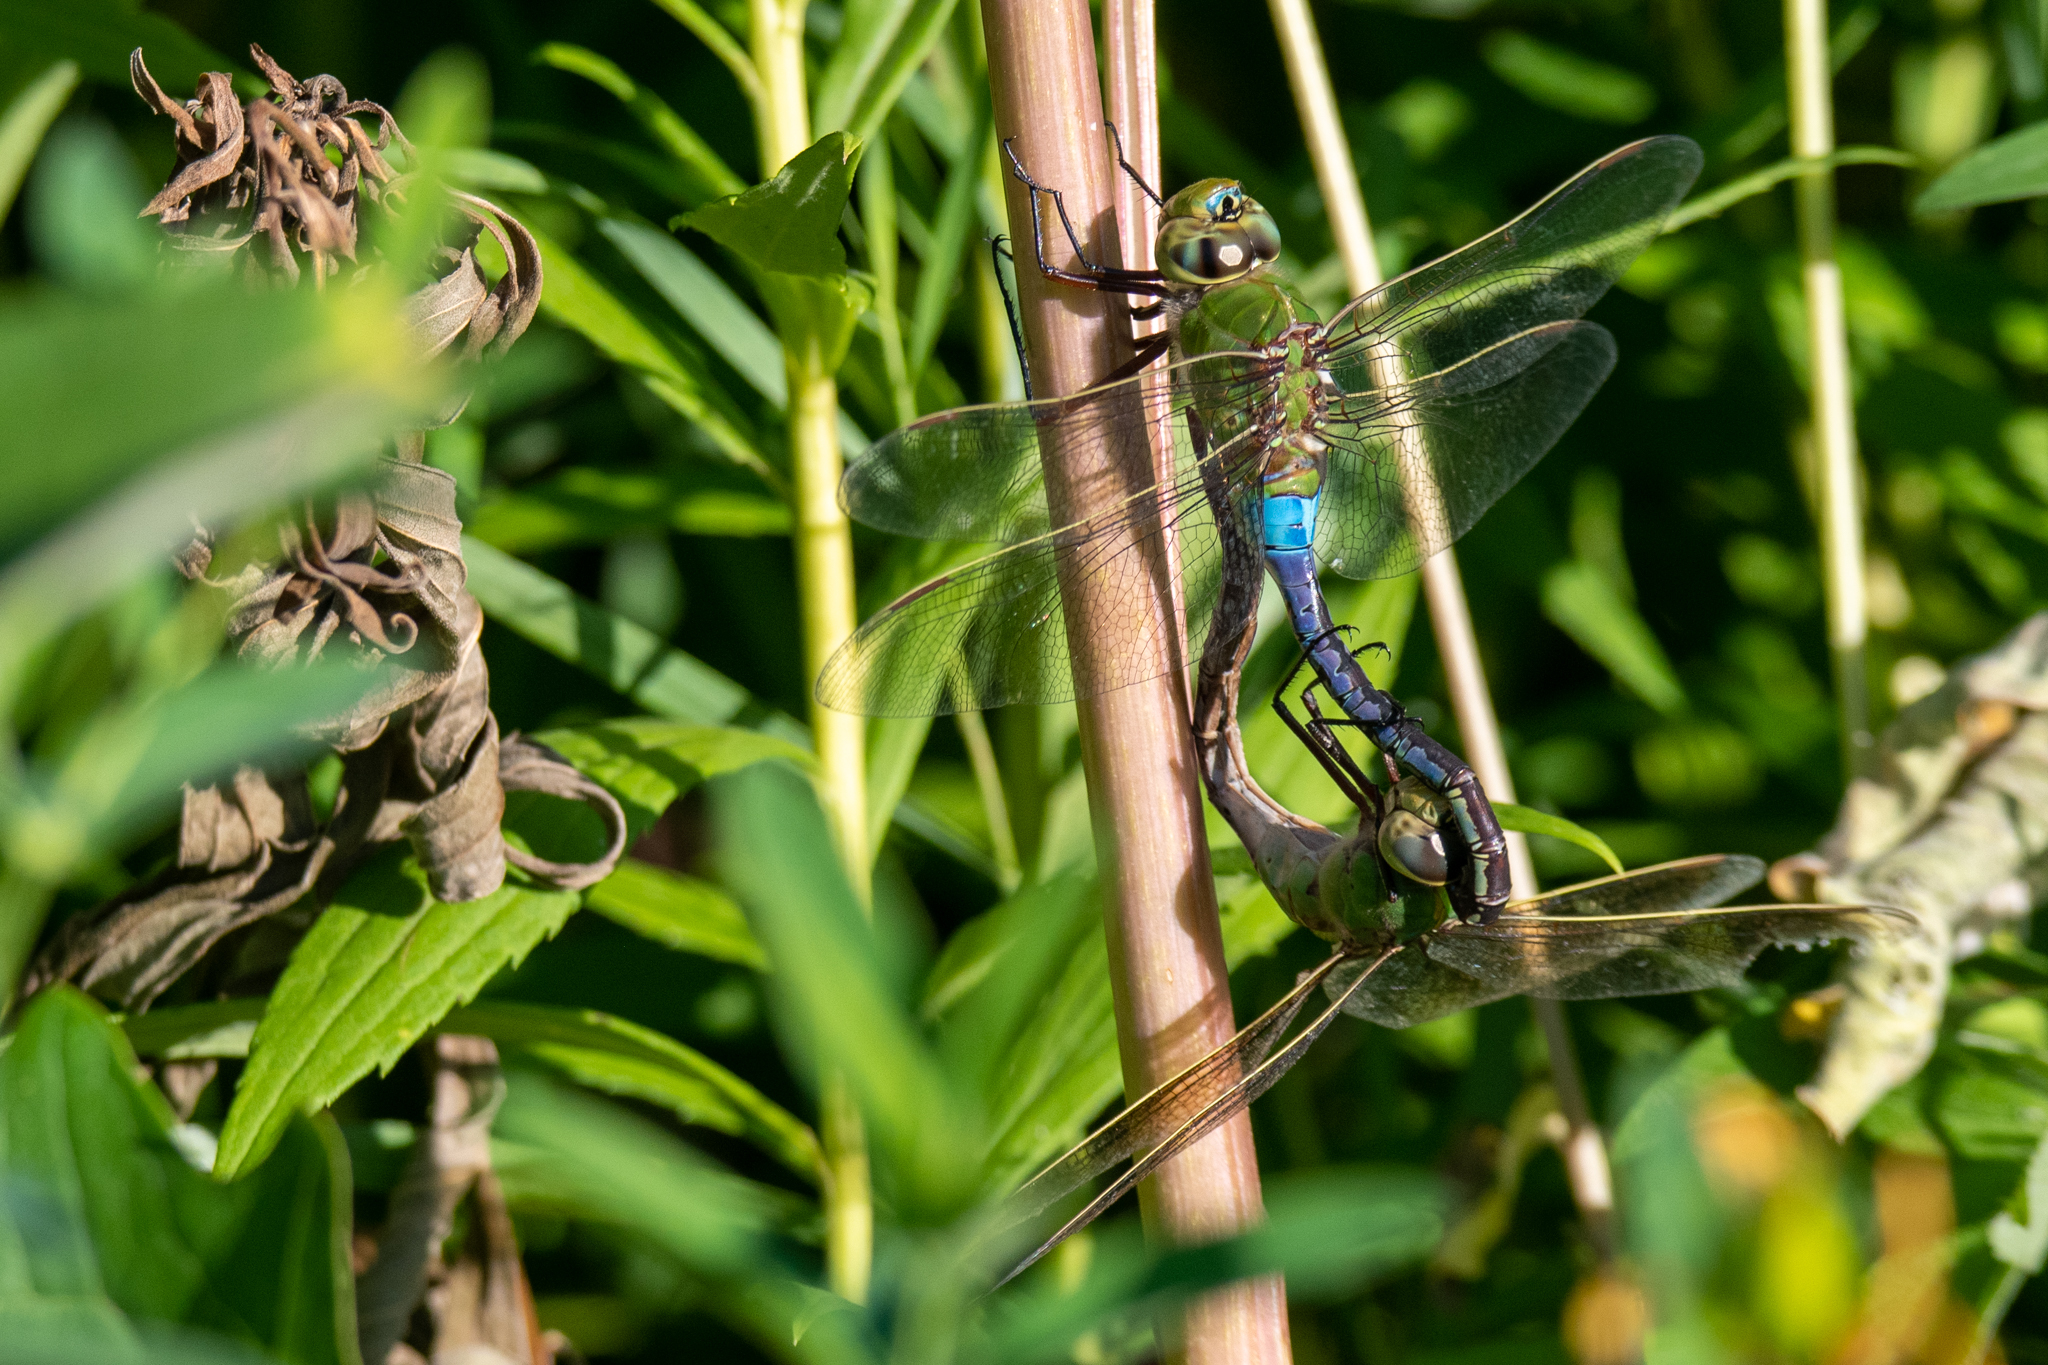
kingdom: Animalia
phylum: Arthropoda
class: Insecta
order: Odonata
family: Aeshnidae
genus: Anax
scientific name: Anax junius
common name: Common green darner
